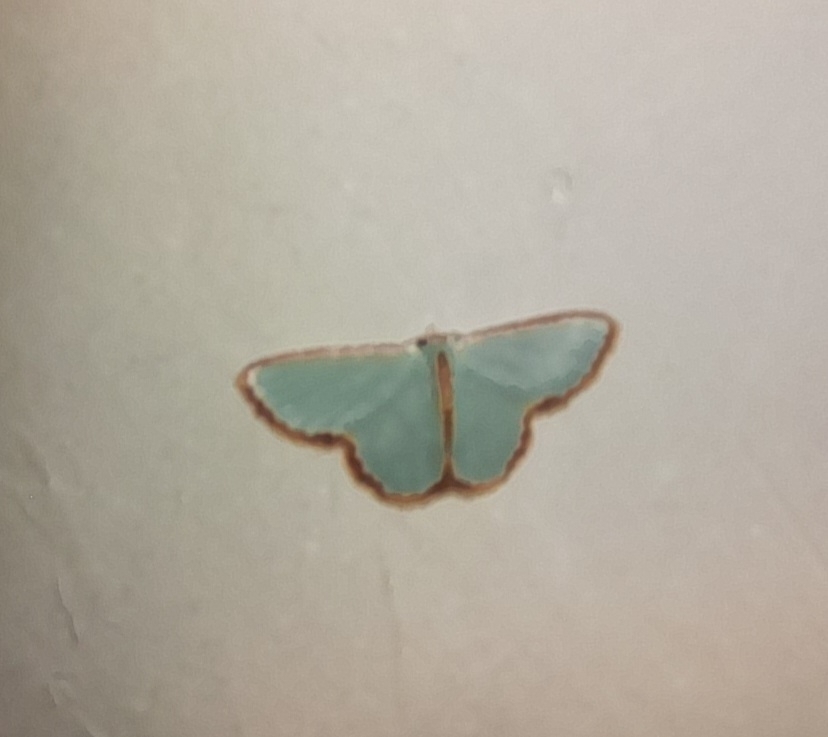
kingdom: Animalia
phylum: Arthropoda
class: Insecta
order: Lepidoptera
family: Geometridae
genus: Comostola
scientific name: Comostola pyrrhogona
